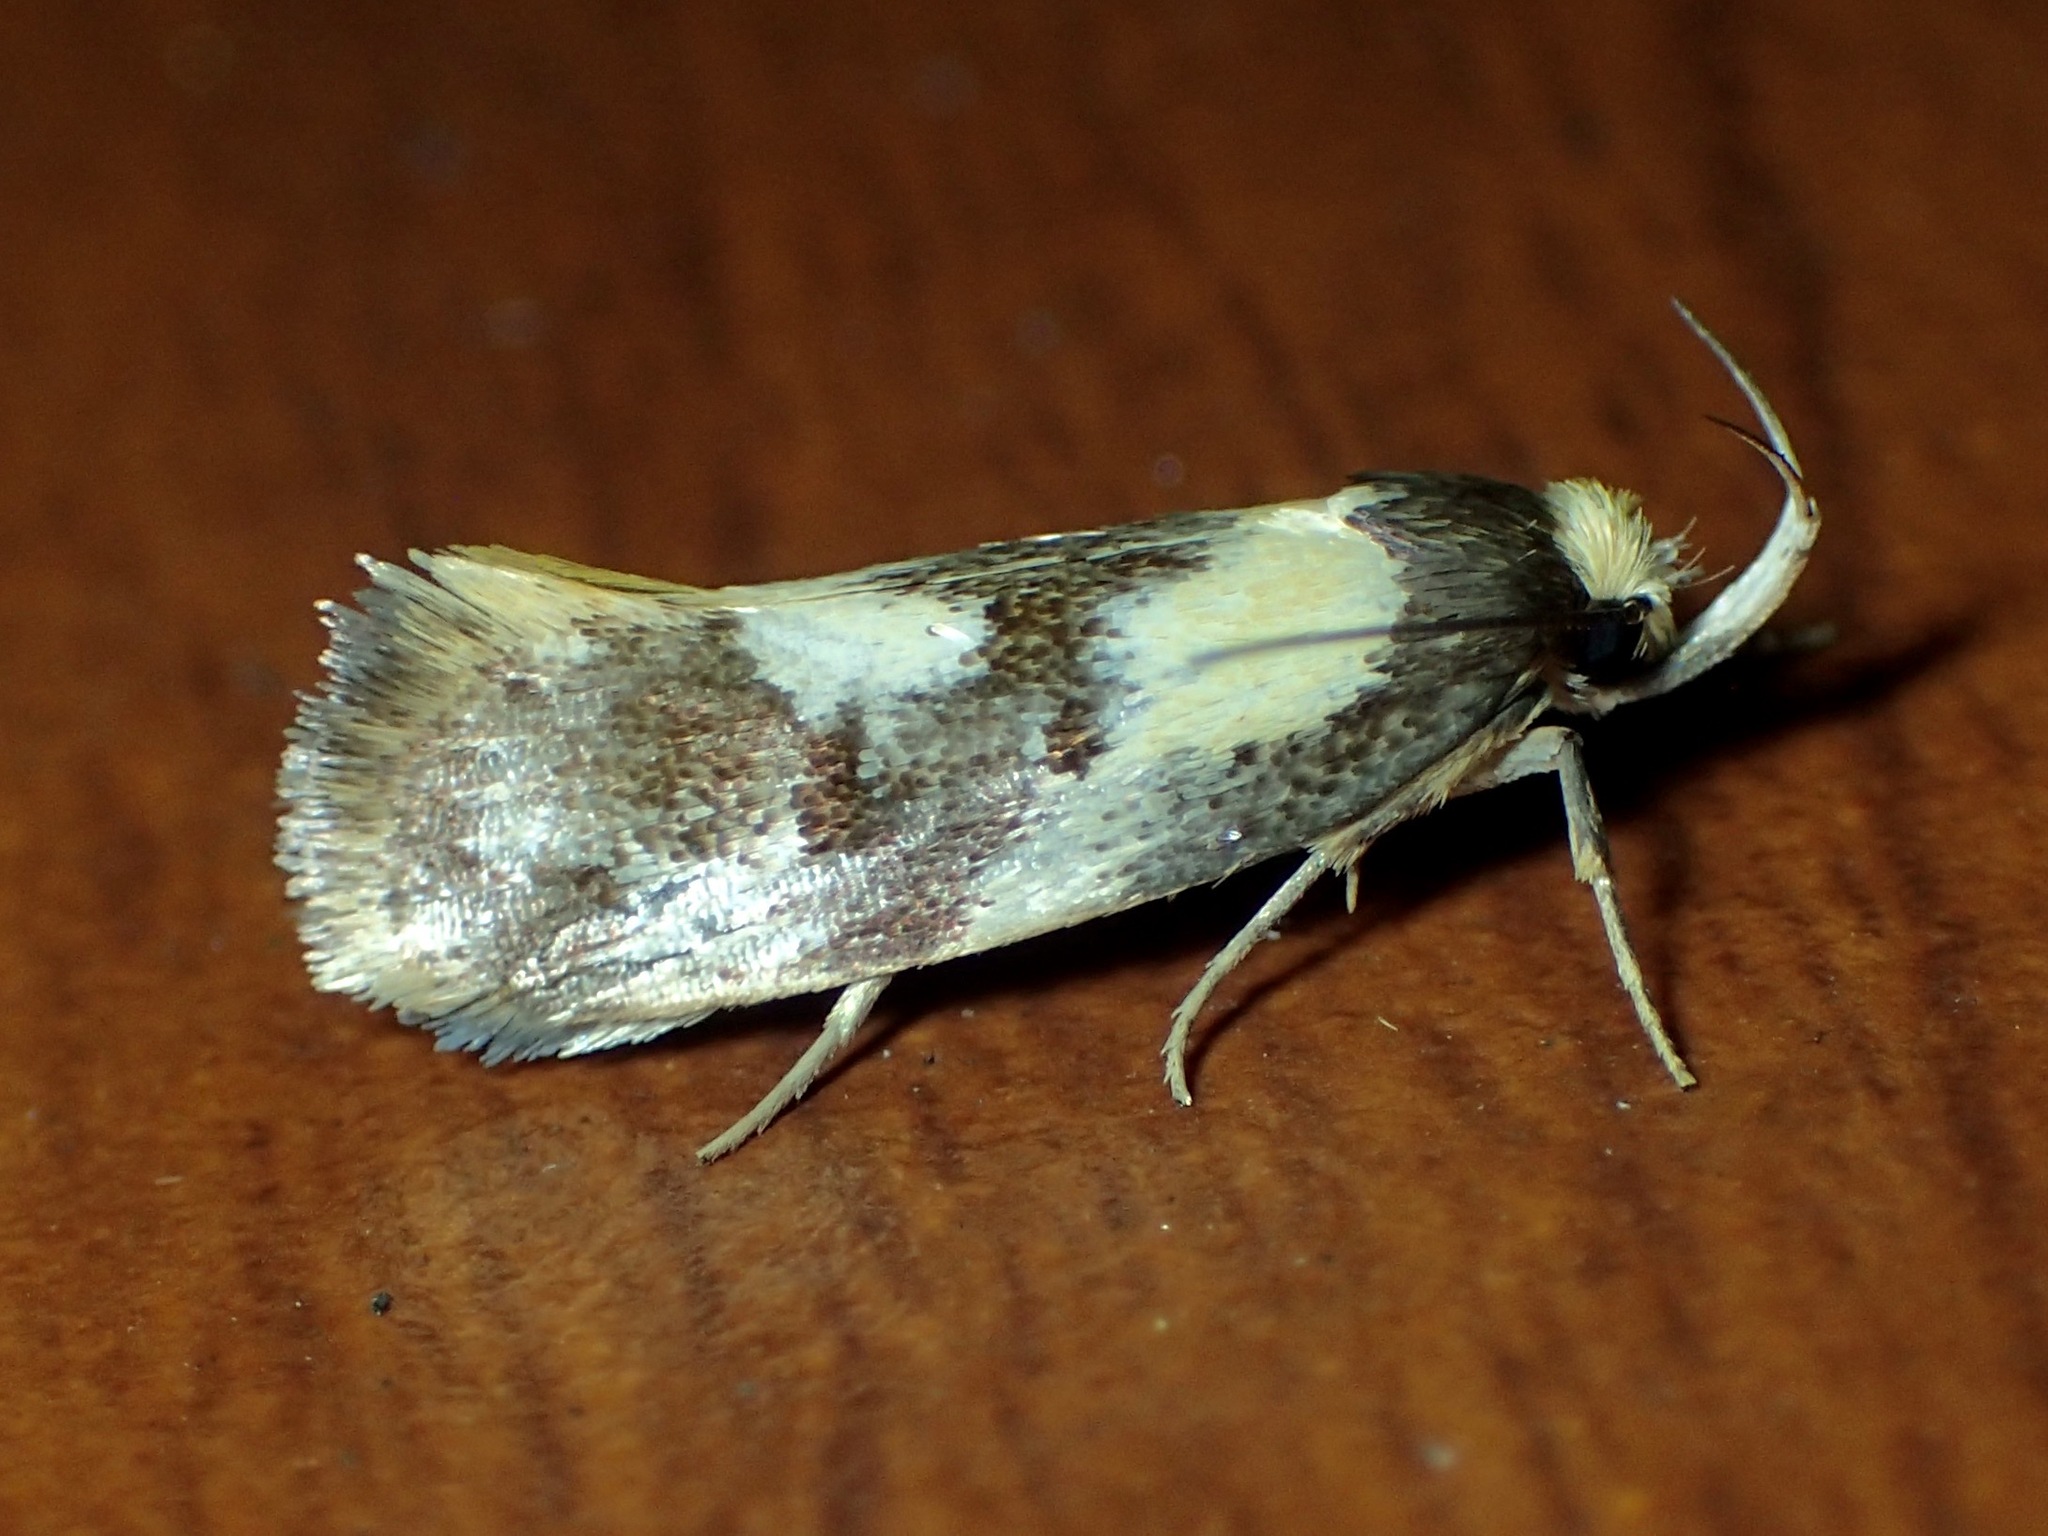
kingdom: Animalia
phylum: Arthropoda
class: Insecta
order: Lepidoptera
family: Oecophoridae
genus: Eulechria
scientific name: Eulechria marmorata
